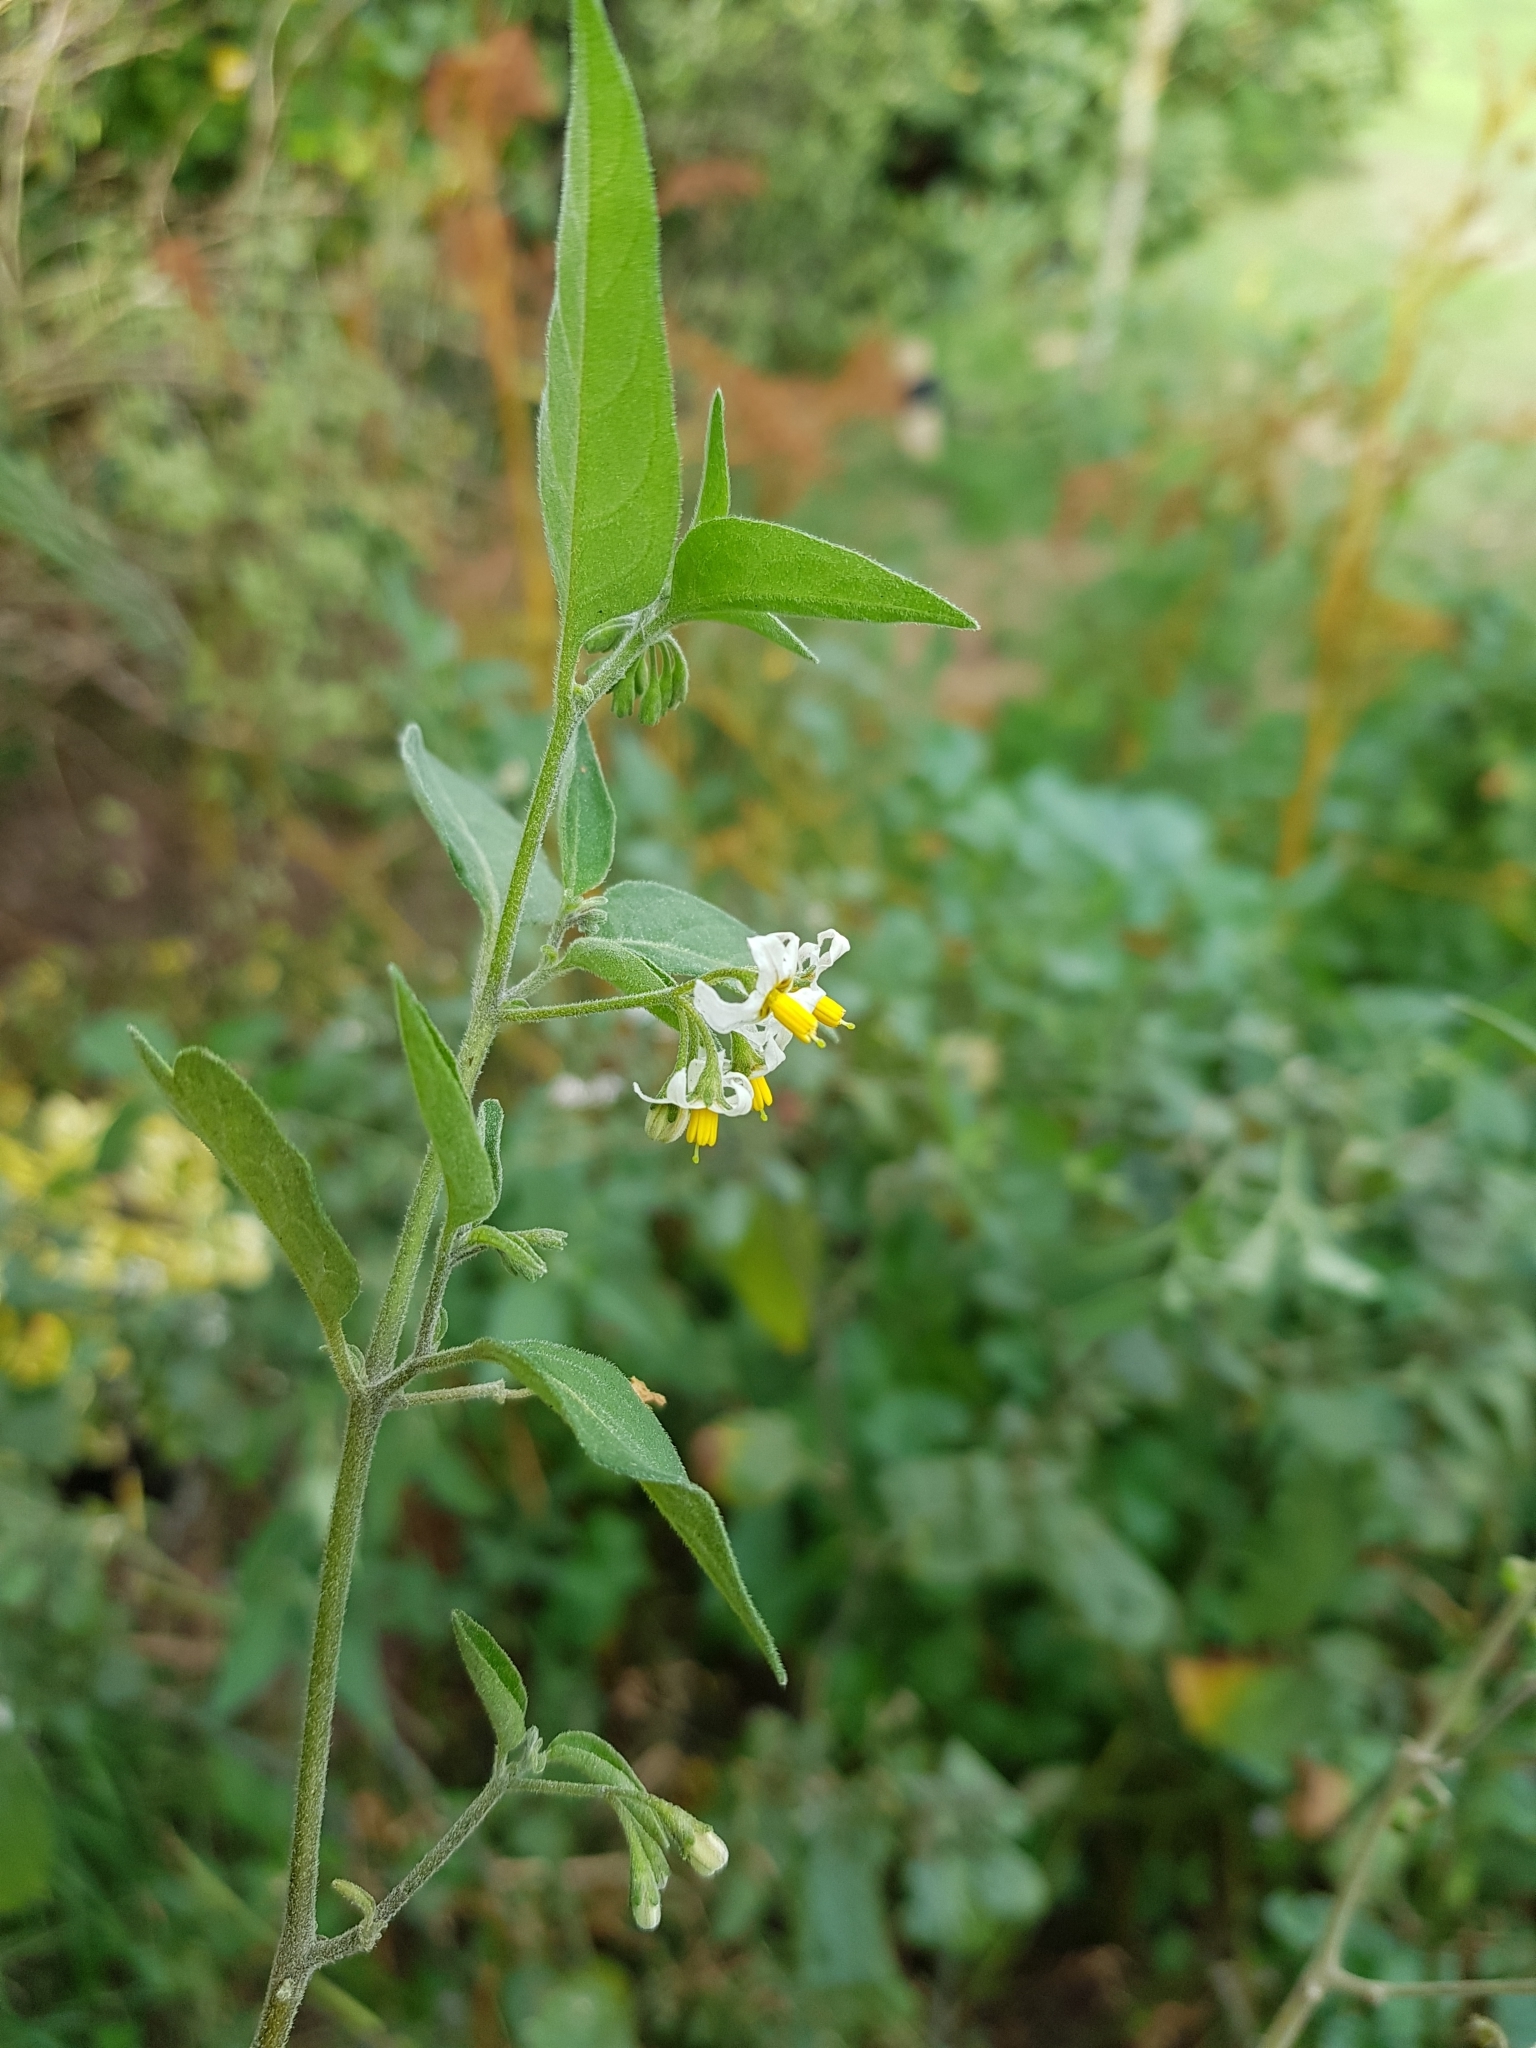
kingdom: Plantae
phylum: Tracheophyta
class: Magnoliopsida
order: Solanales
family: Solanaceae
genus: Solanum
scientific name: Solanum chenopodioides
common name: Tall nightshade
